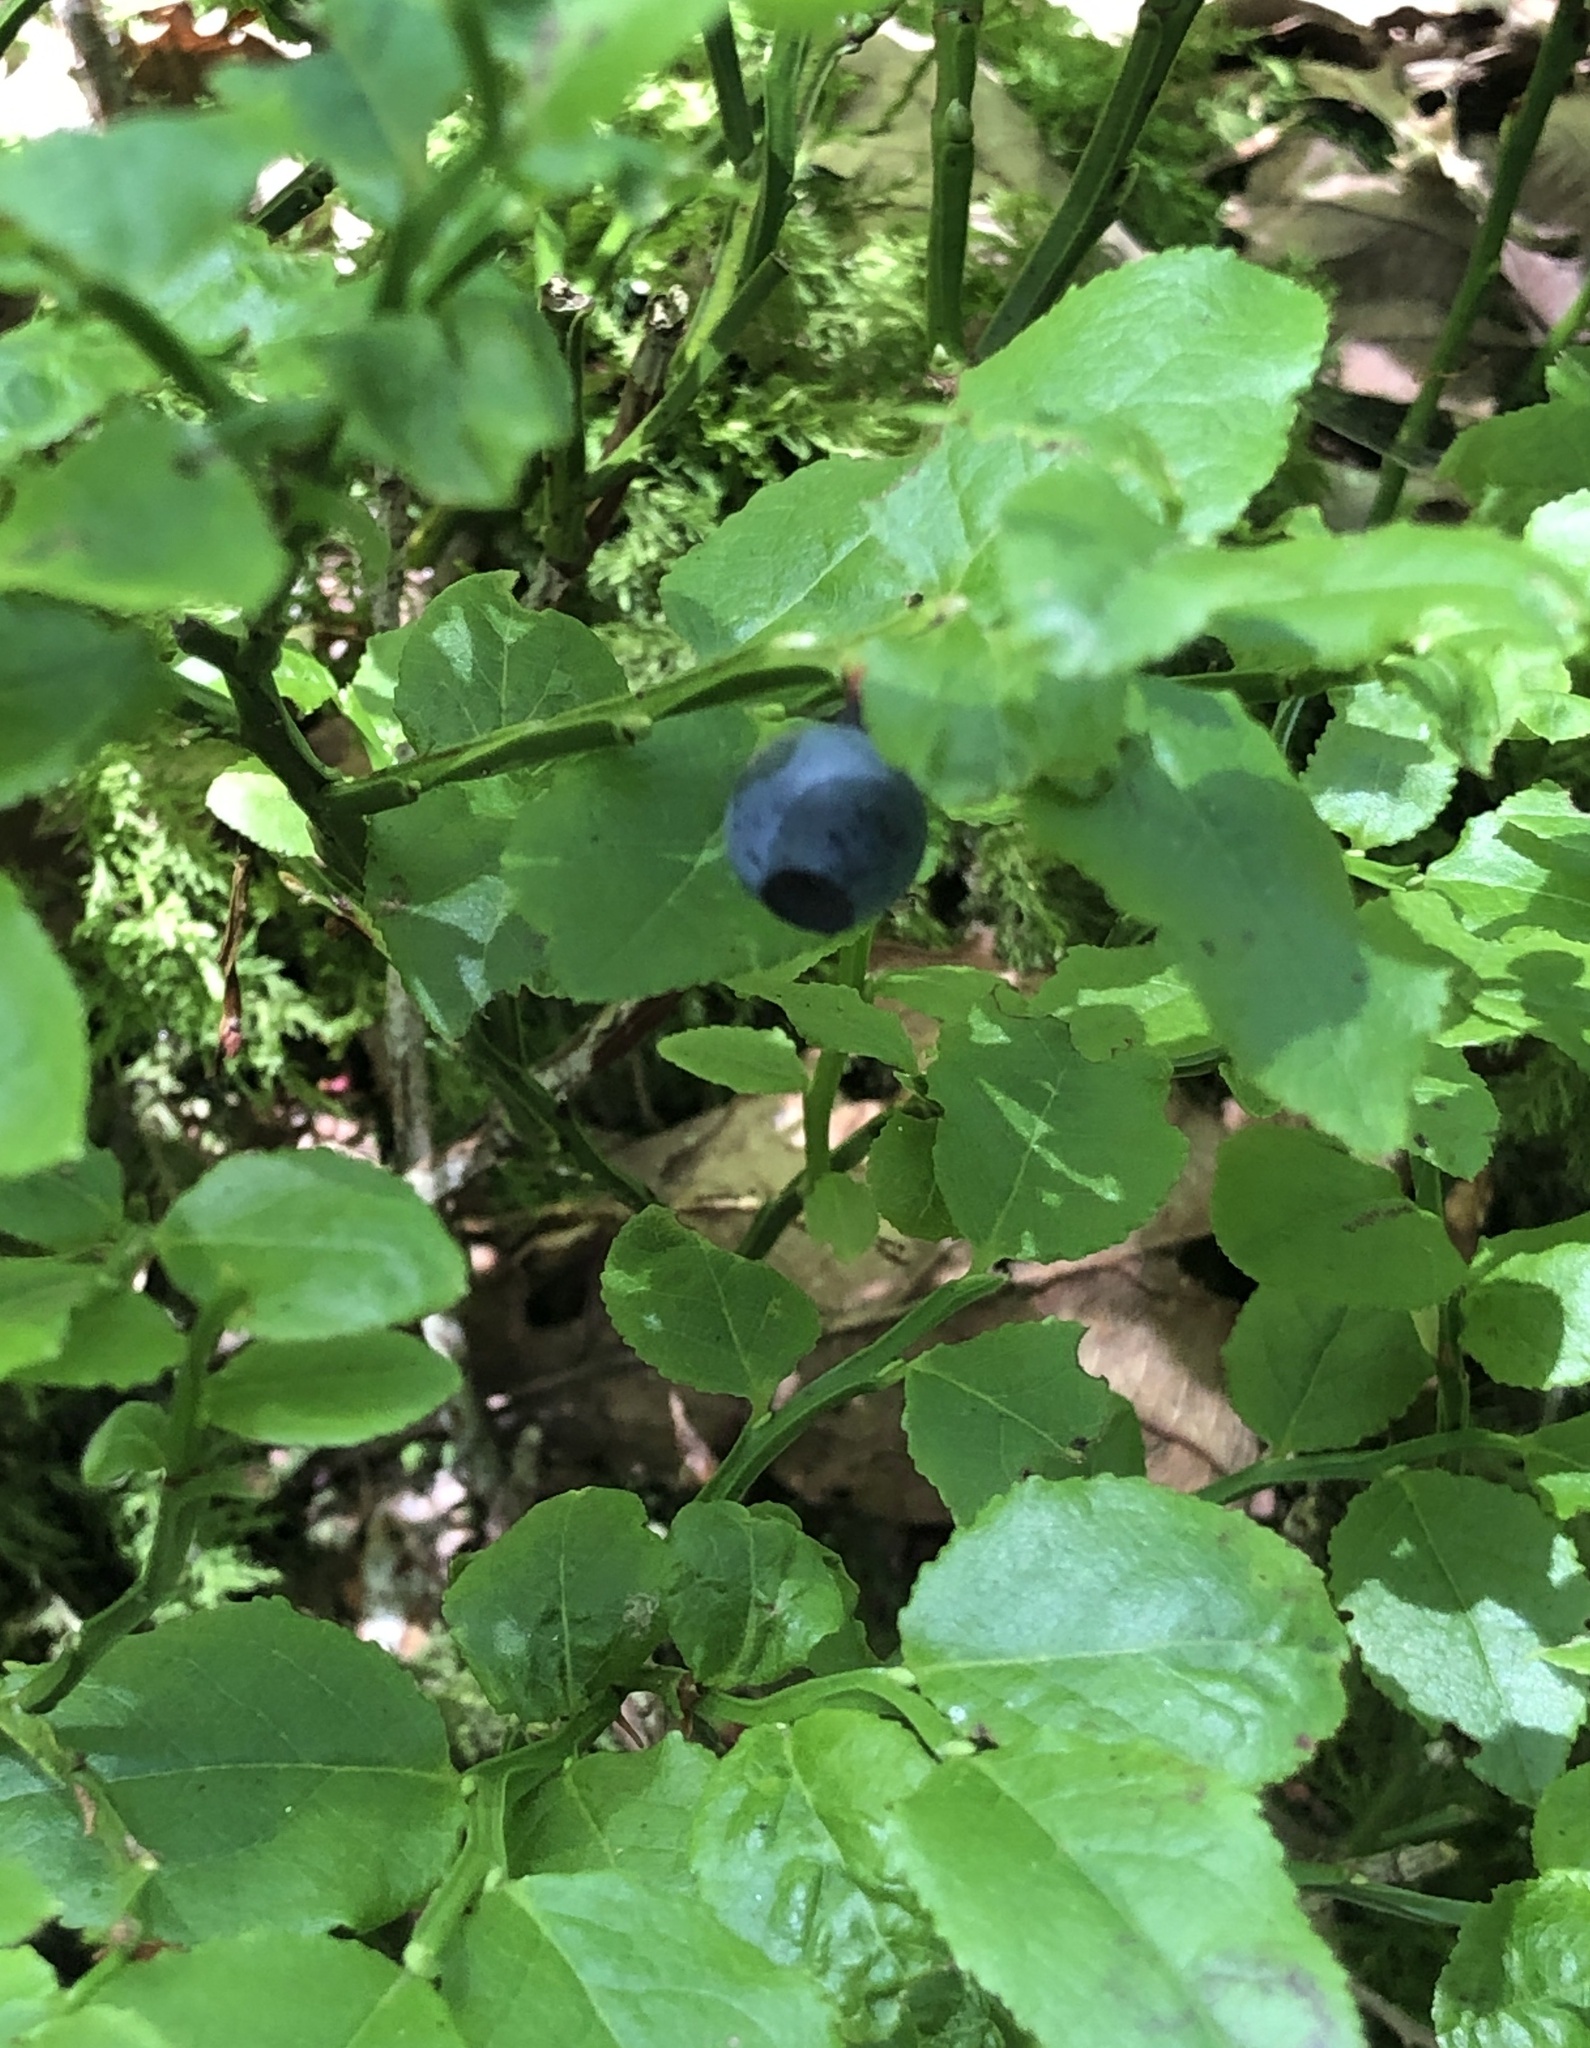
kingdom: Plantae
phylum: Tracheophyta
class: Magnoliopsida
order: Ericales
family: Ericaceae
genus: Vaccinium
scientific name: Vaccinium myrtillus
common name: Bilberry
